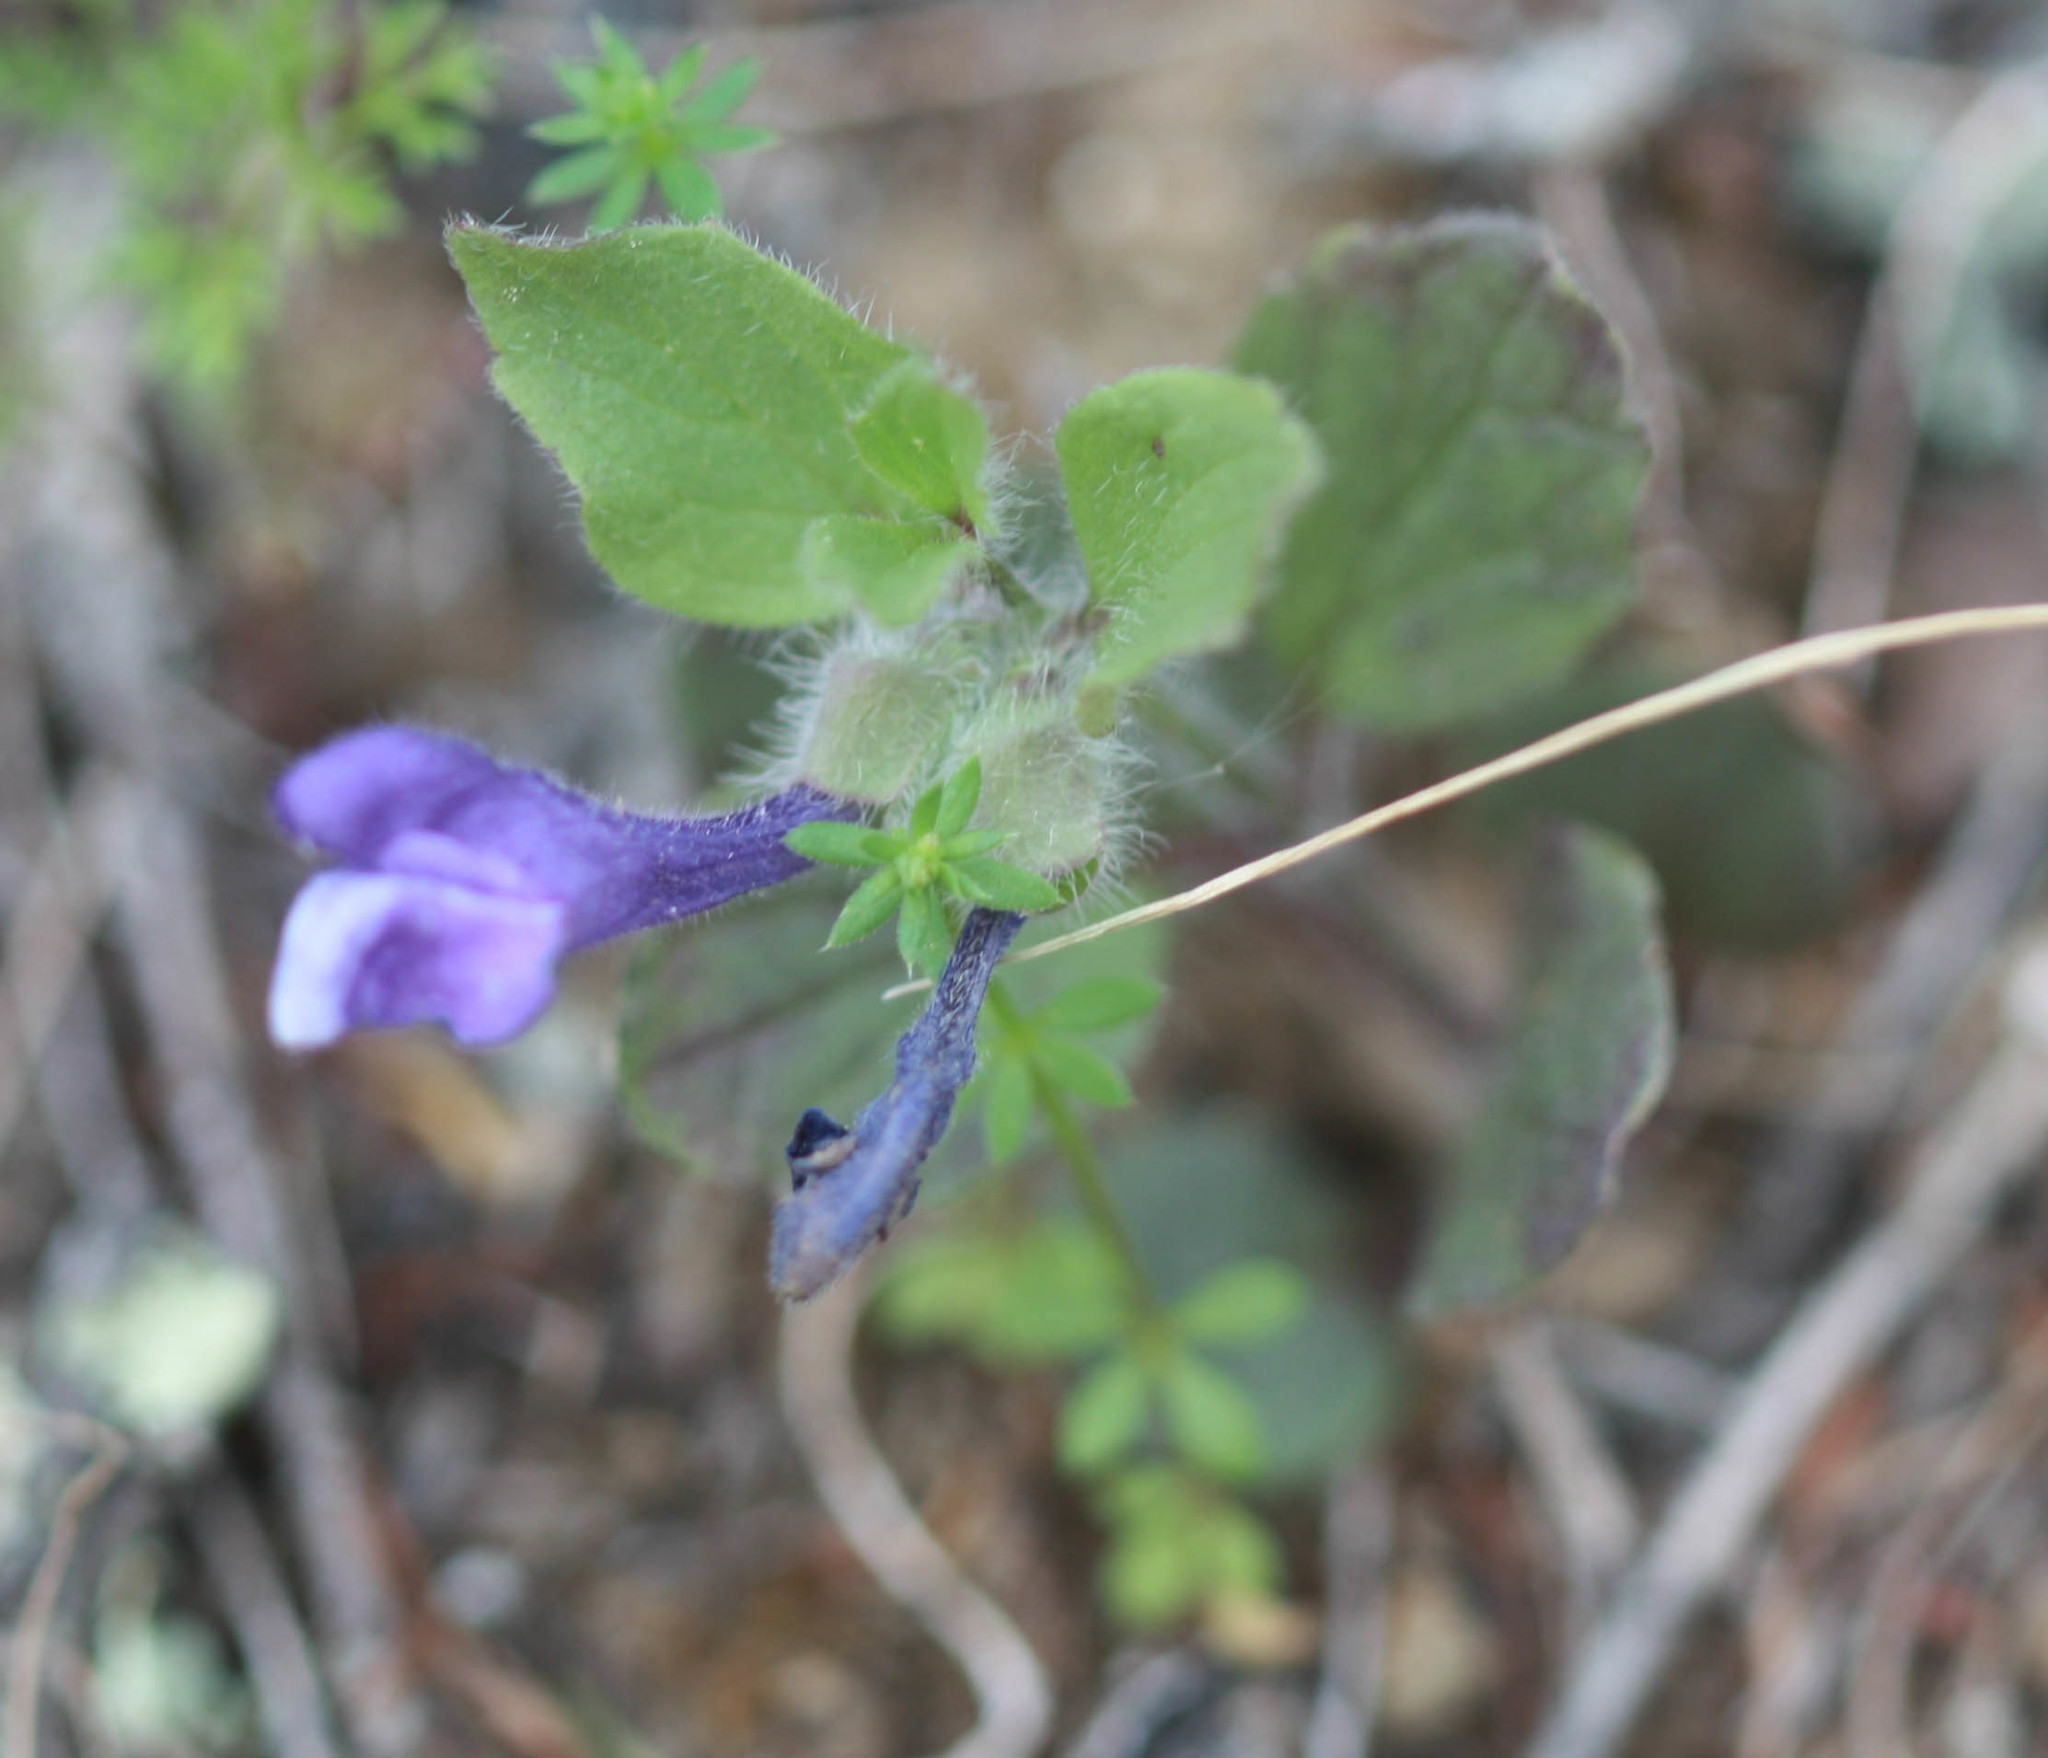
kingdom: Plantae
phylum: Tracheophyta
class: Magnoliopsida
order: Lamiales
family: Lamiaceae
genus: Scutellaria
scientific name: Scutellaria tuberosa
